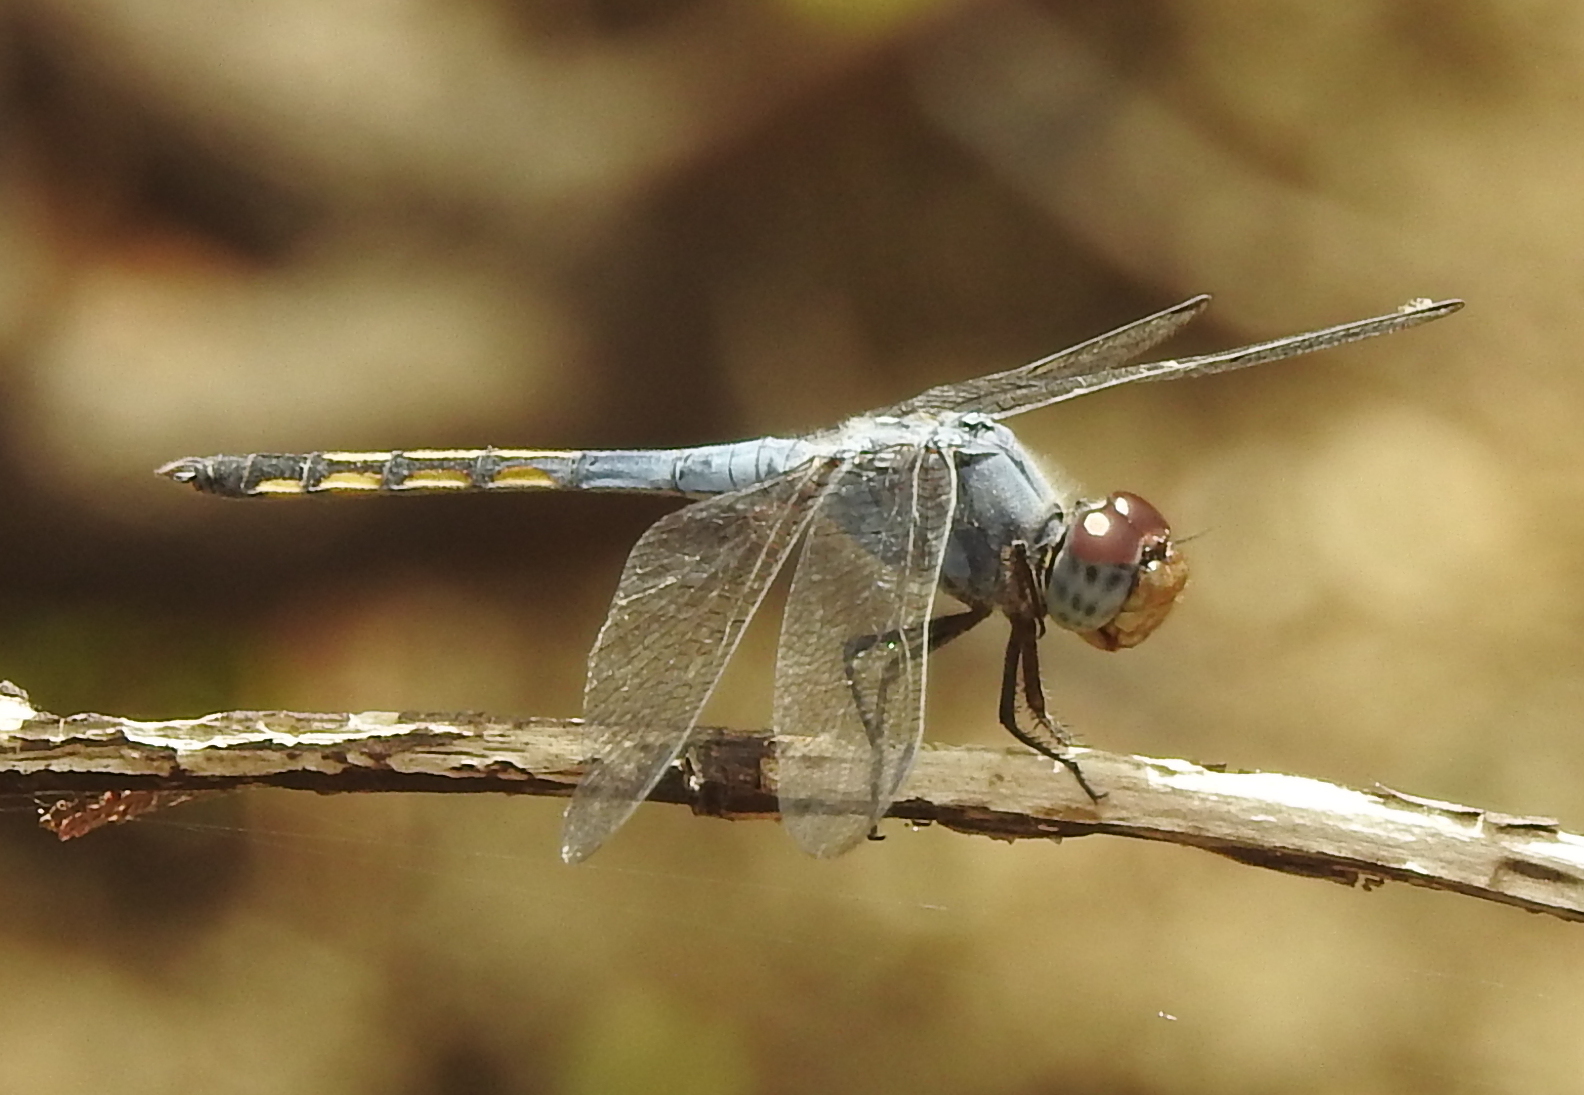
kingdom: Animalia
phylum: Arthropoda
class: Insecta
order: Odonata
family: Libellulidae
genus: Potamarcha
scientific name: Potamarcha congener
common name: Blue chaser
